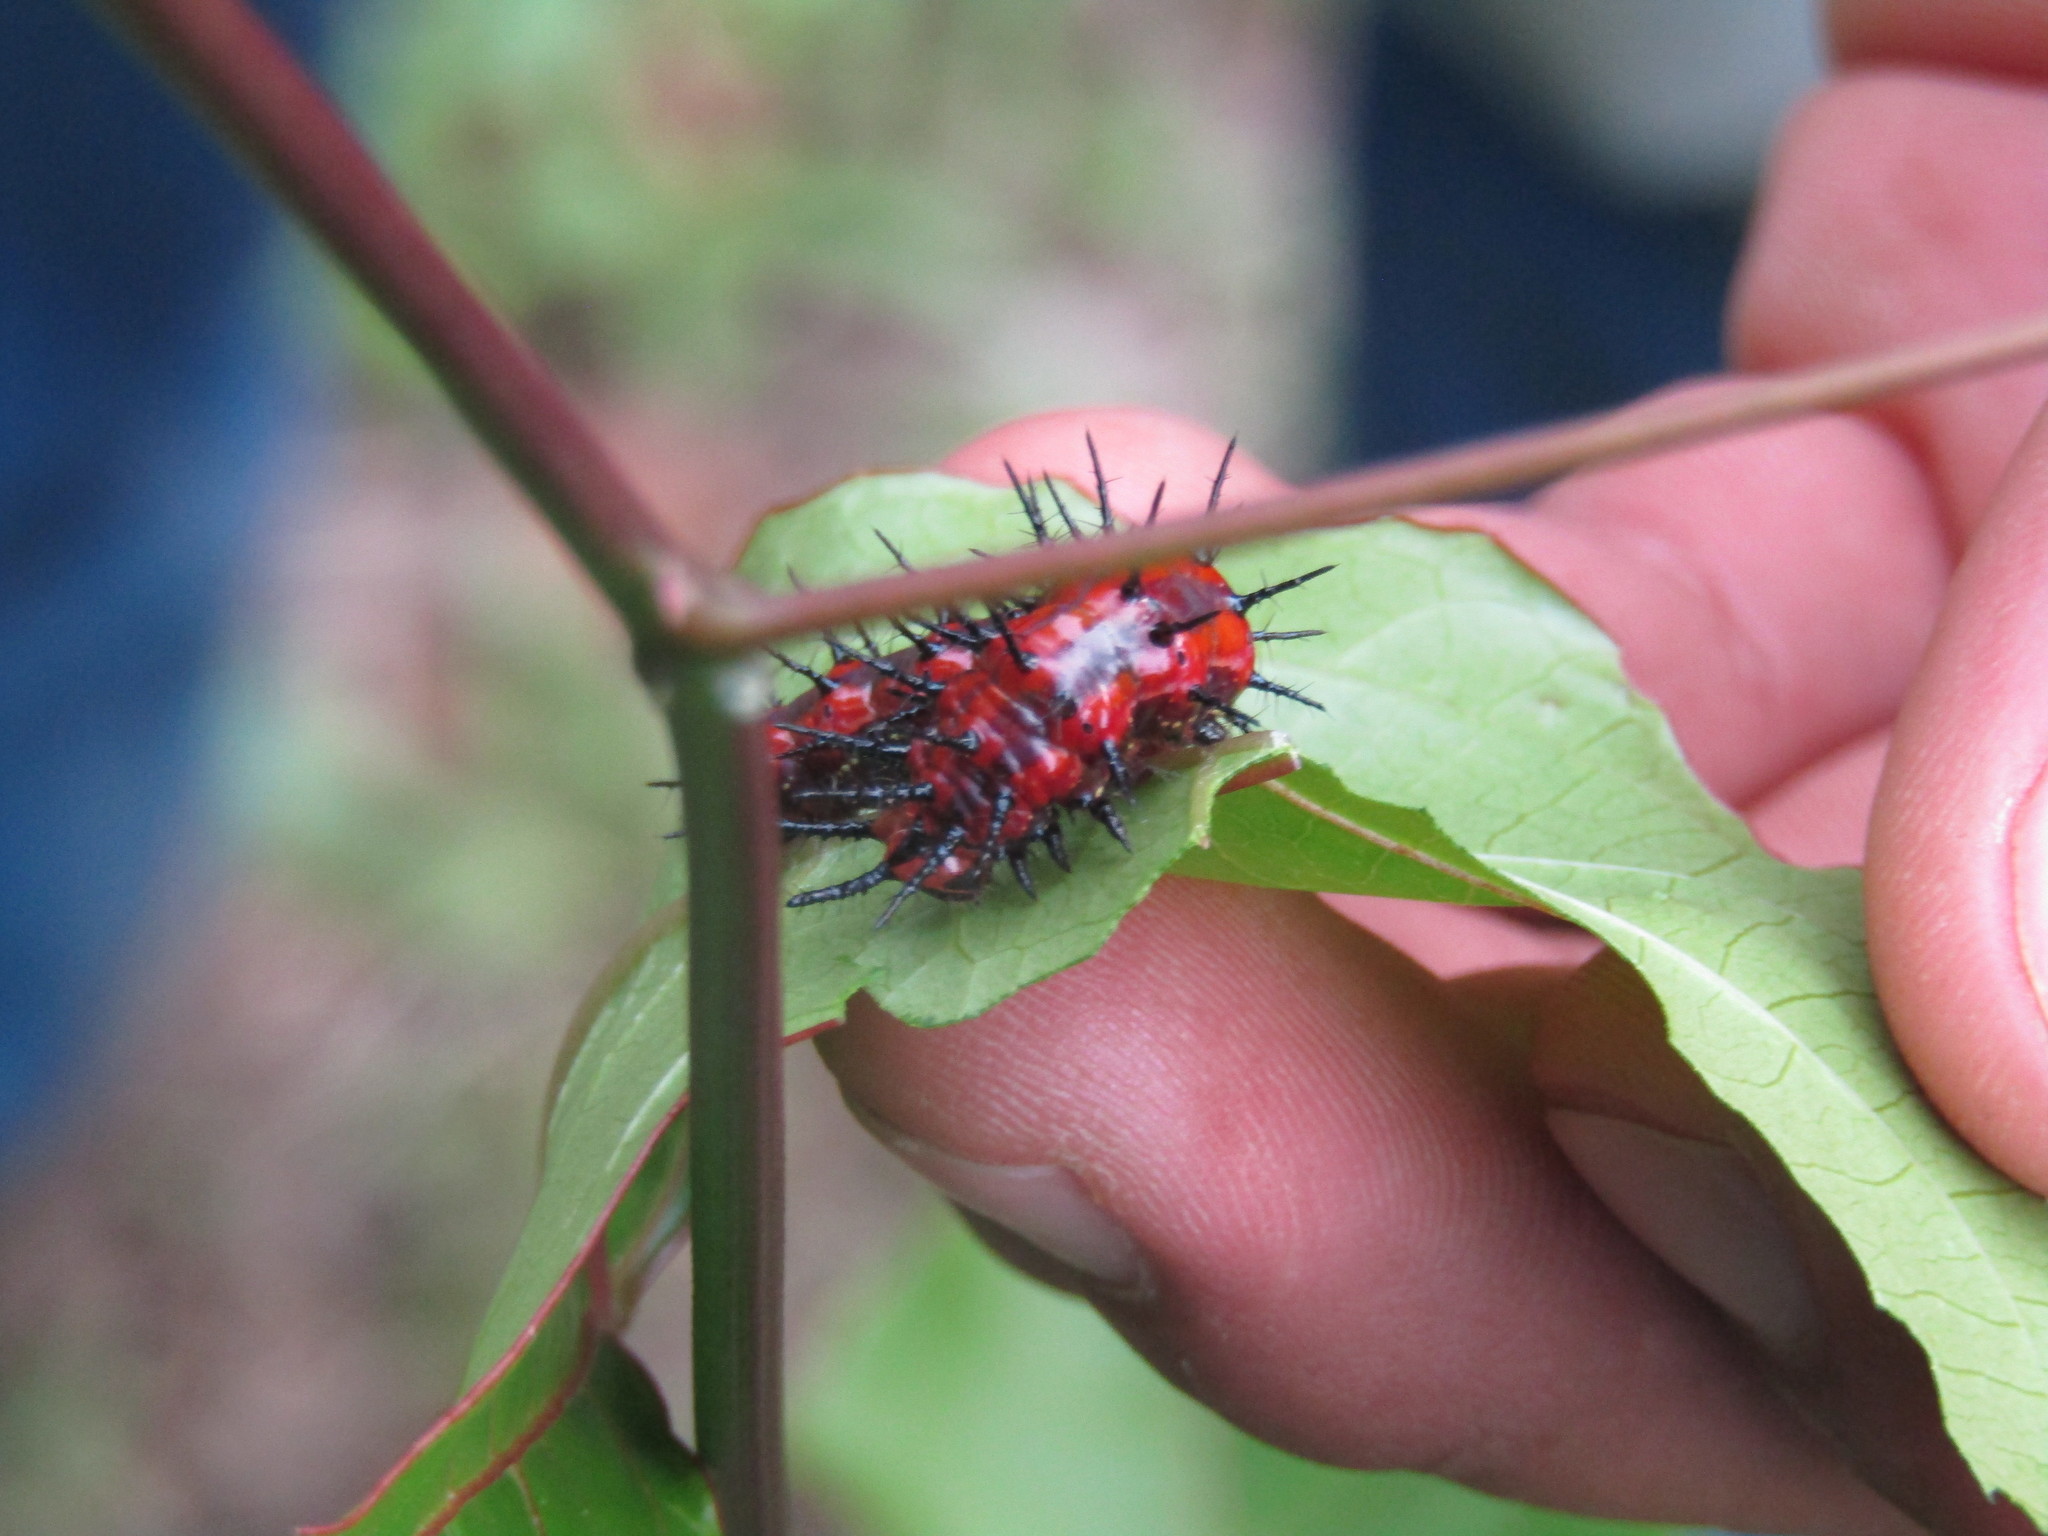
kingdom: Animalia
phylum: Arthropoda
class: Insecta
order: Lepidoptera
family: Nymphalidae
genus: Dione
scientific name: Dione vanillae
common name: Gulf fritillary
